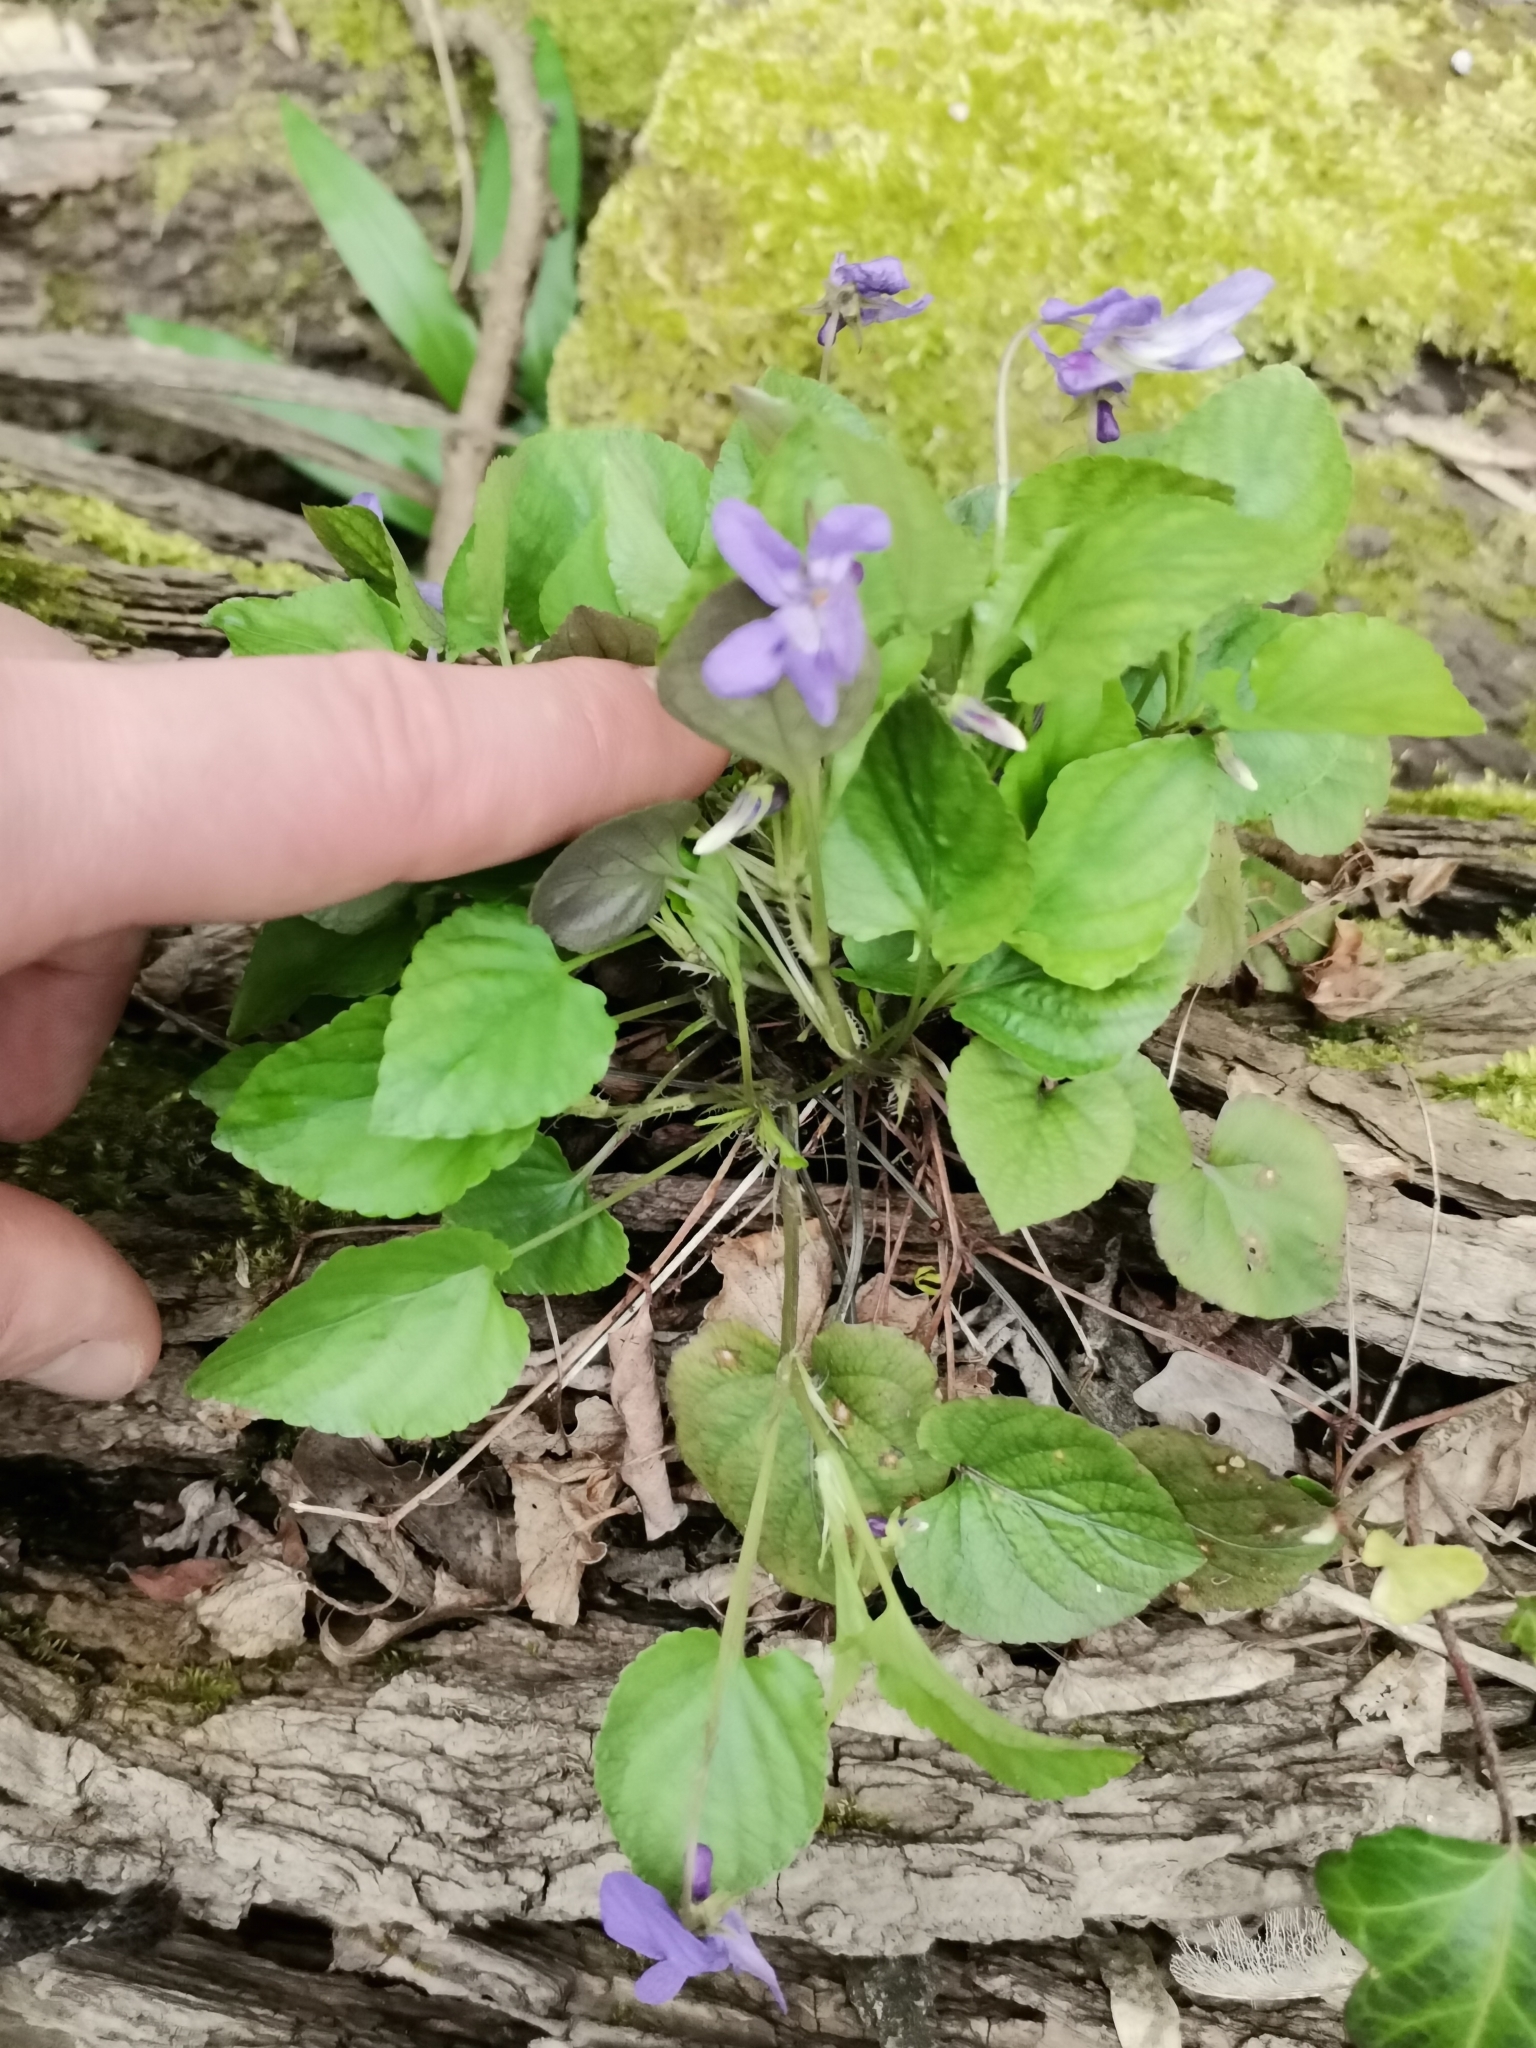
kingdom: Plantae
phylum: Tracheophyta
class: Magnoliopsida
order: Malpighiales
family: Violaceae
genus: Viola
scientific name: Viola reichenbachiana
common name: Early dog-violet
